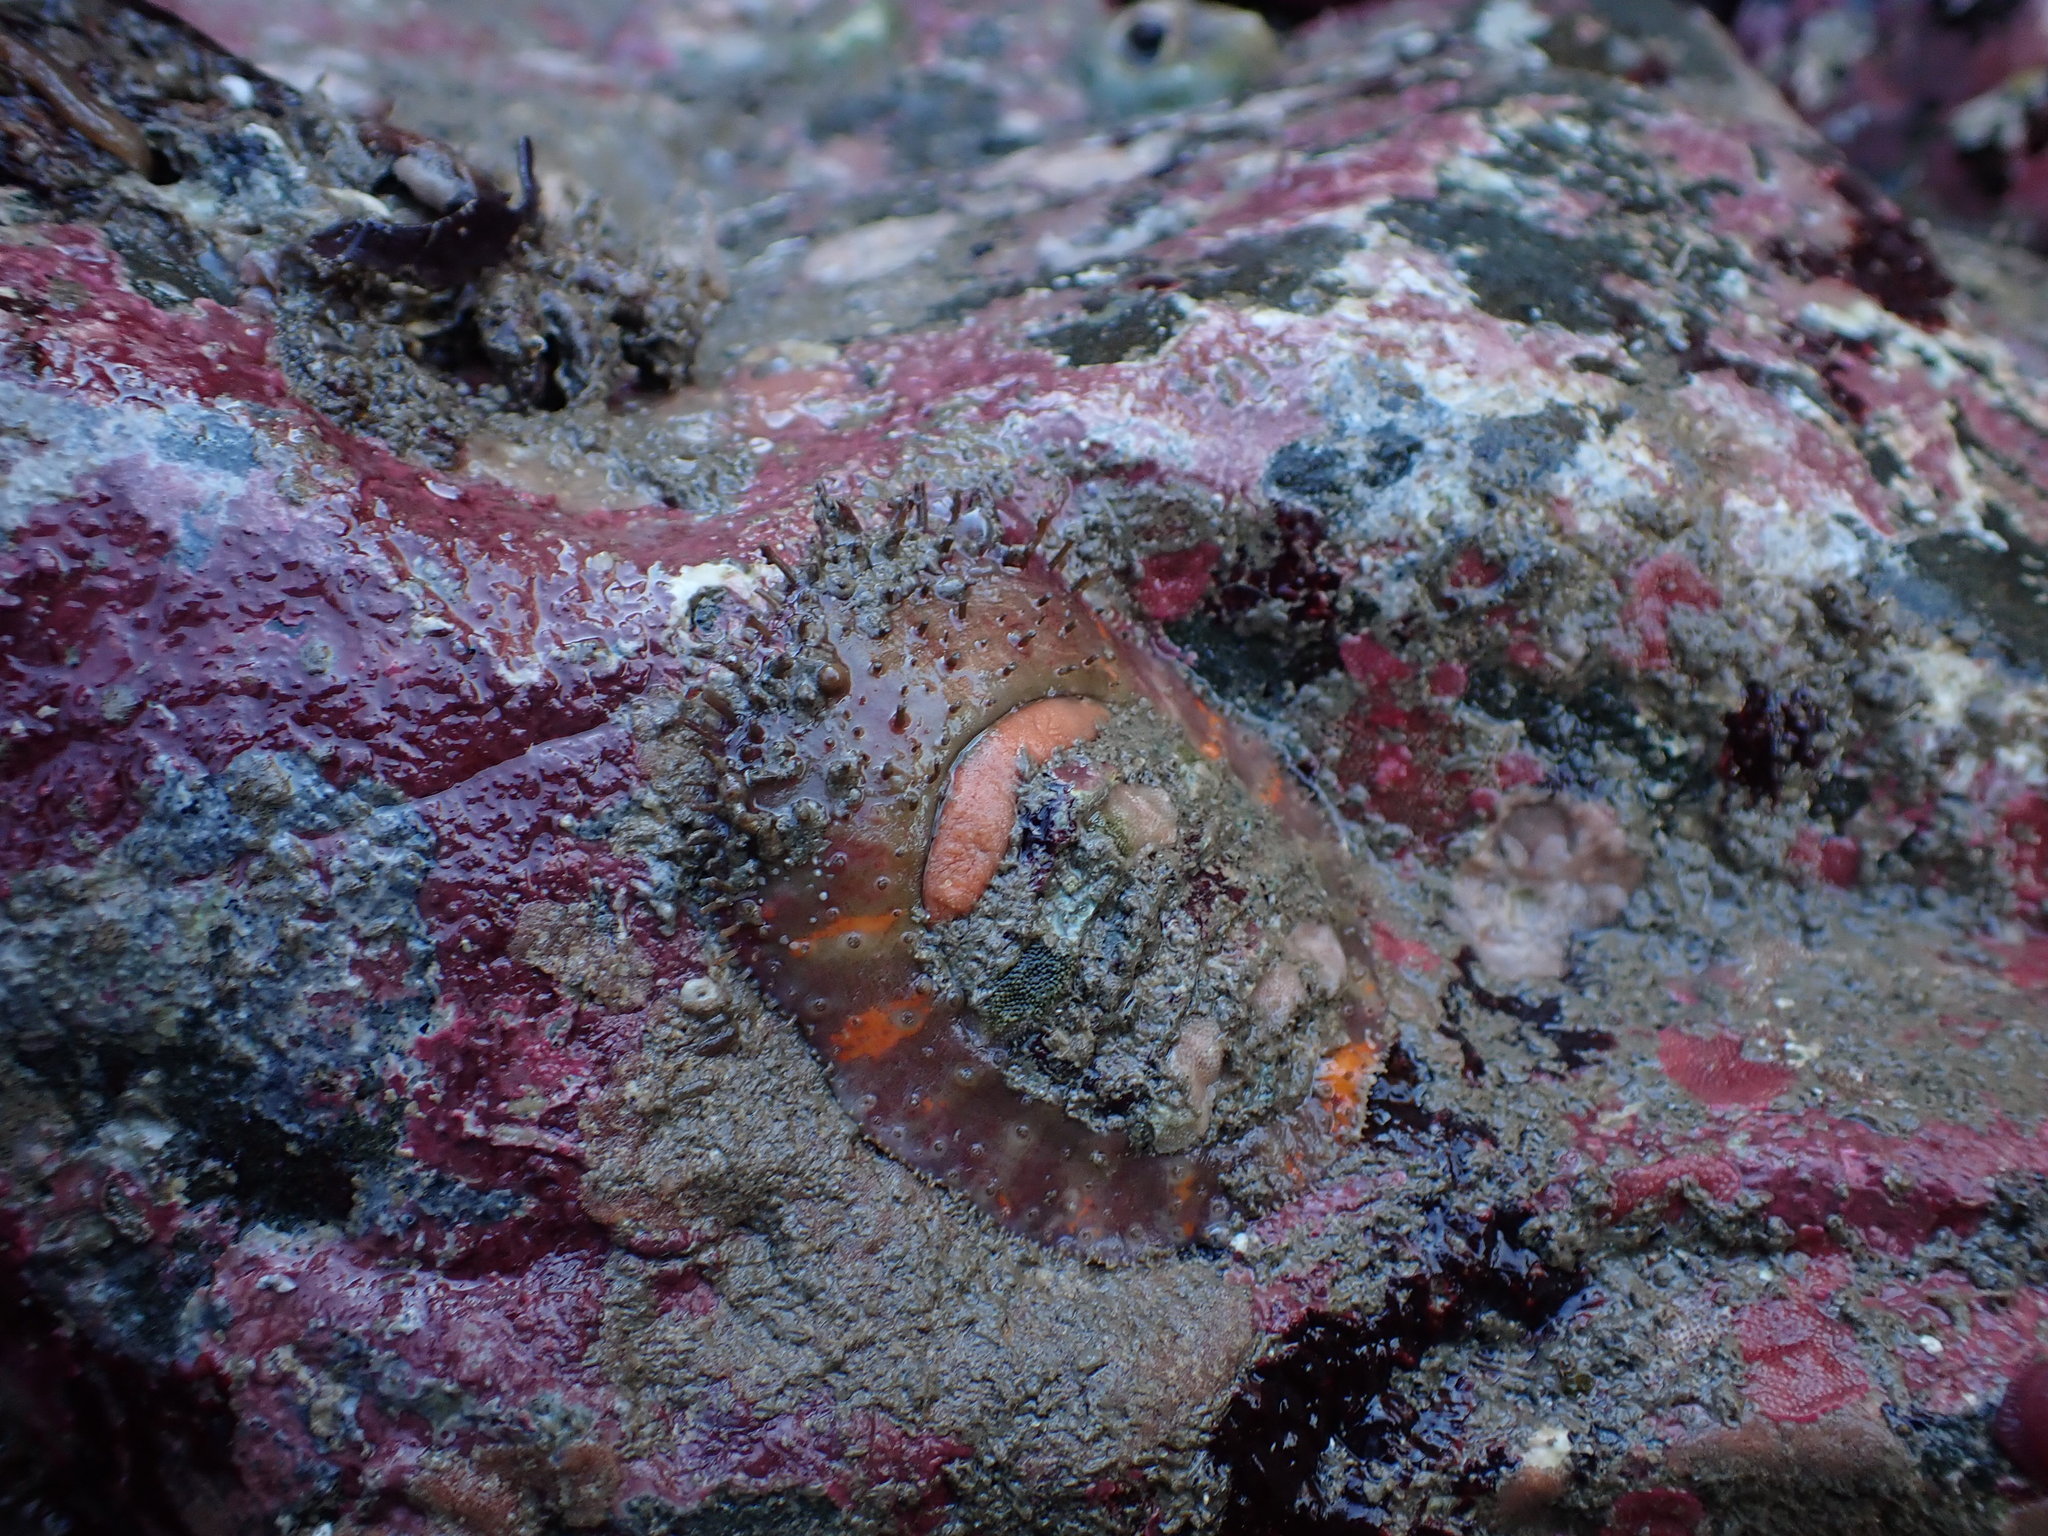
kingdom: Animalia
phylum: Mollusca
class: Polyplacophora
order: Chitonida
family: Mopaliidae
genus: Placiphorella
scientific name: Placiphorella velata
